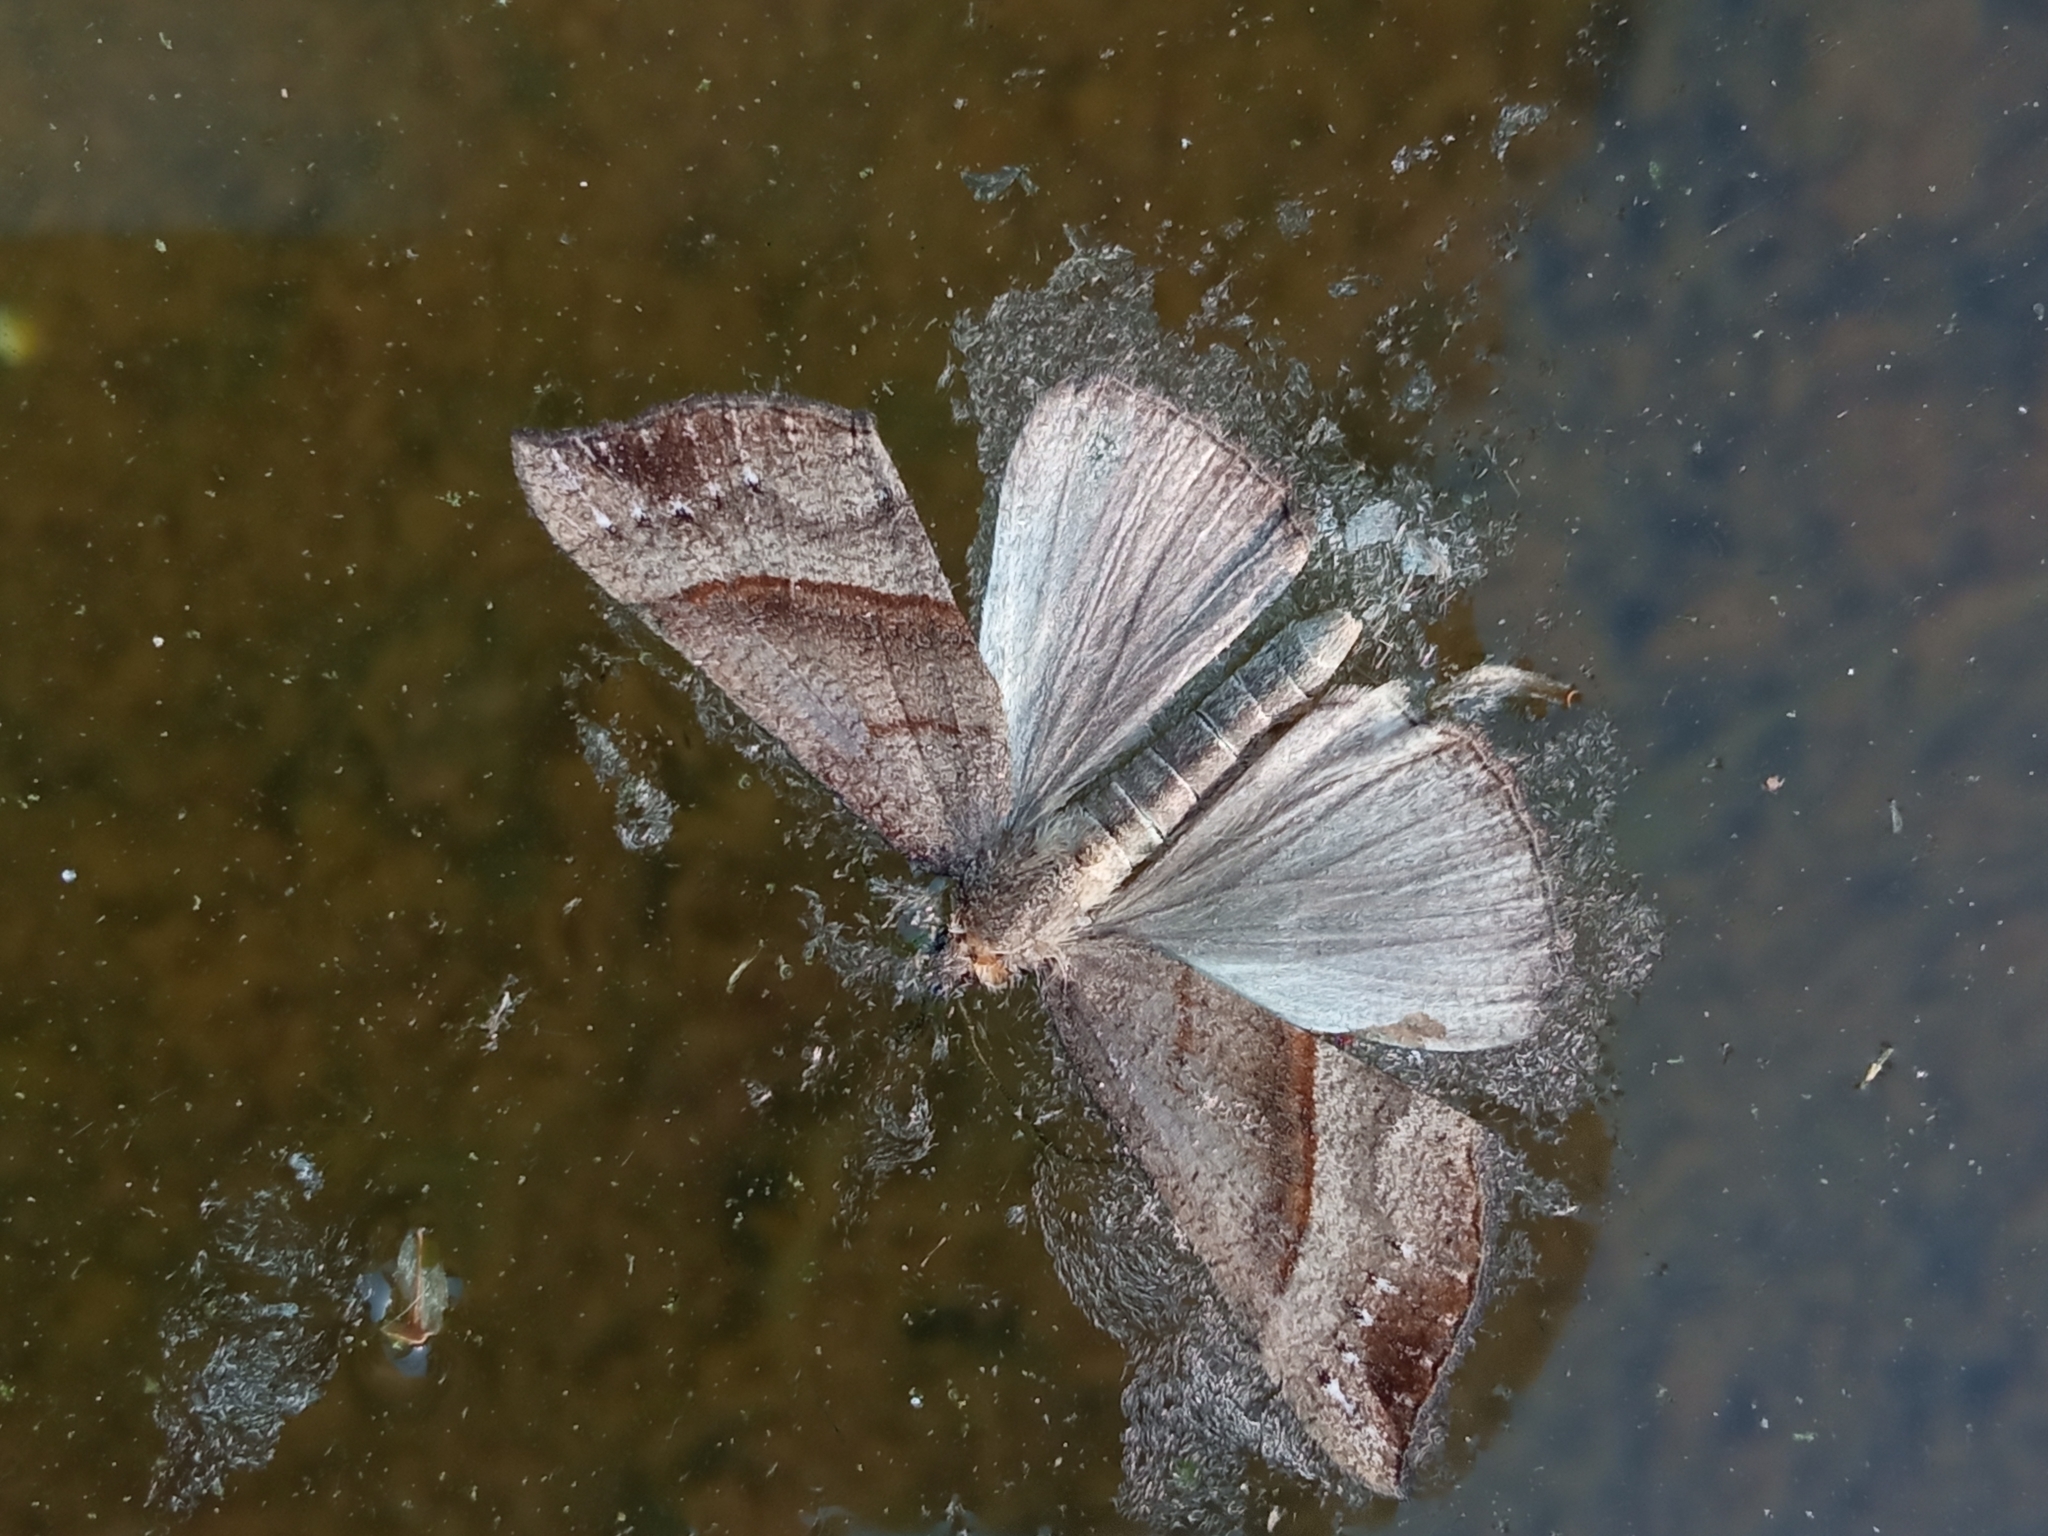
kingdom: Animalia
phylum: Arthropoda
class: Insecta
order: Lepidoptera
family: Erebidae
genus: Hypena
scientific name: Hypena proboscidalis
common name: Snout
